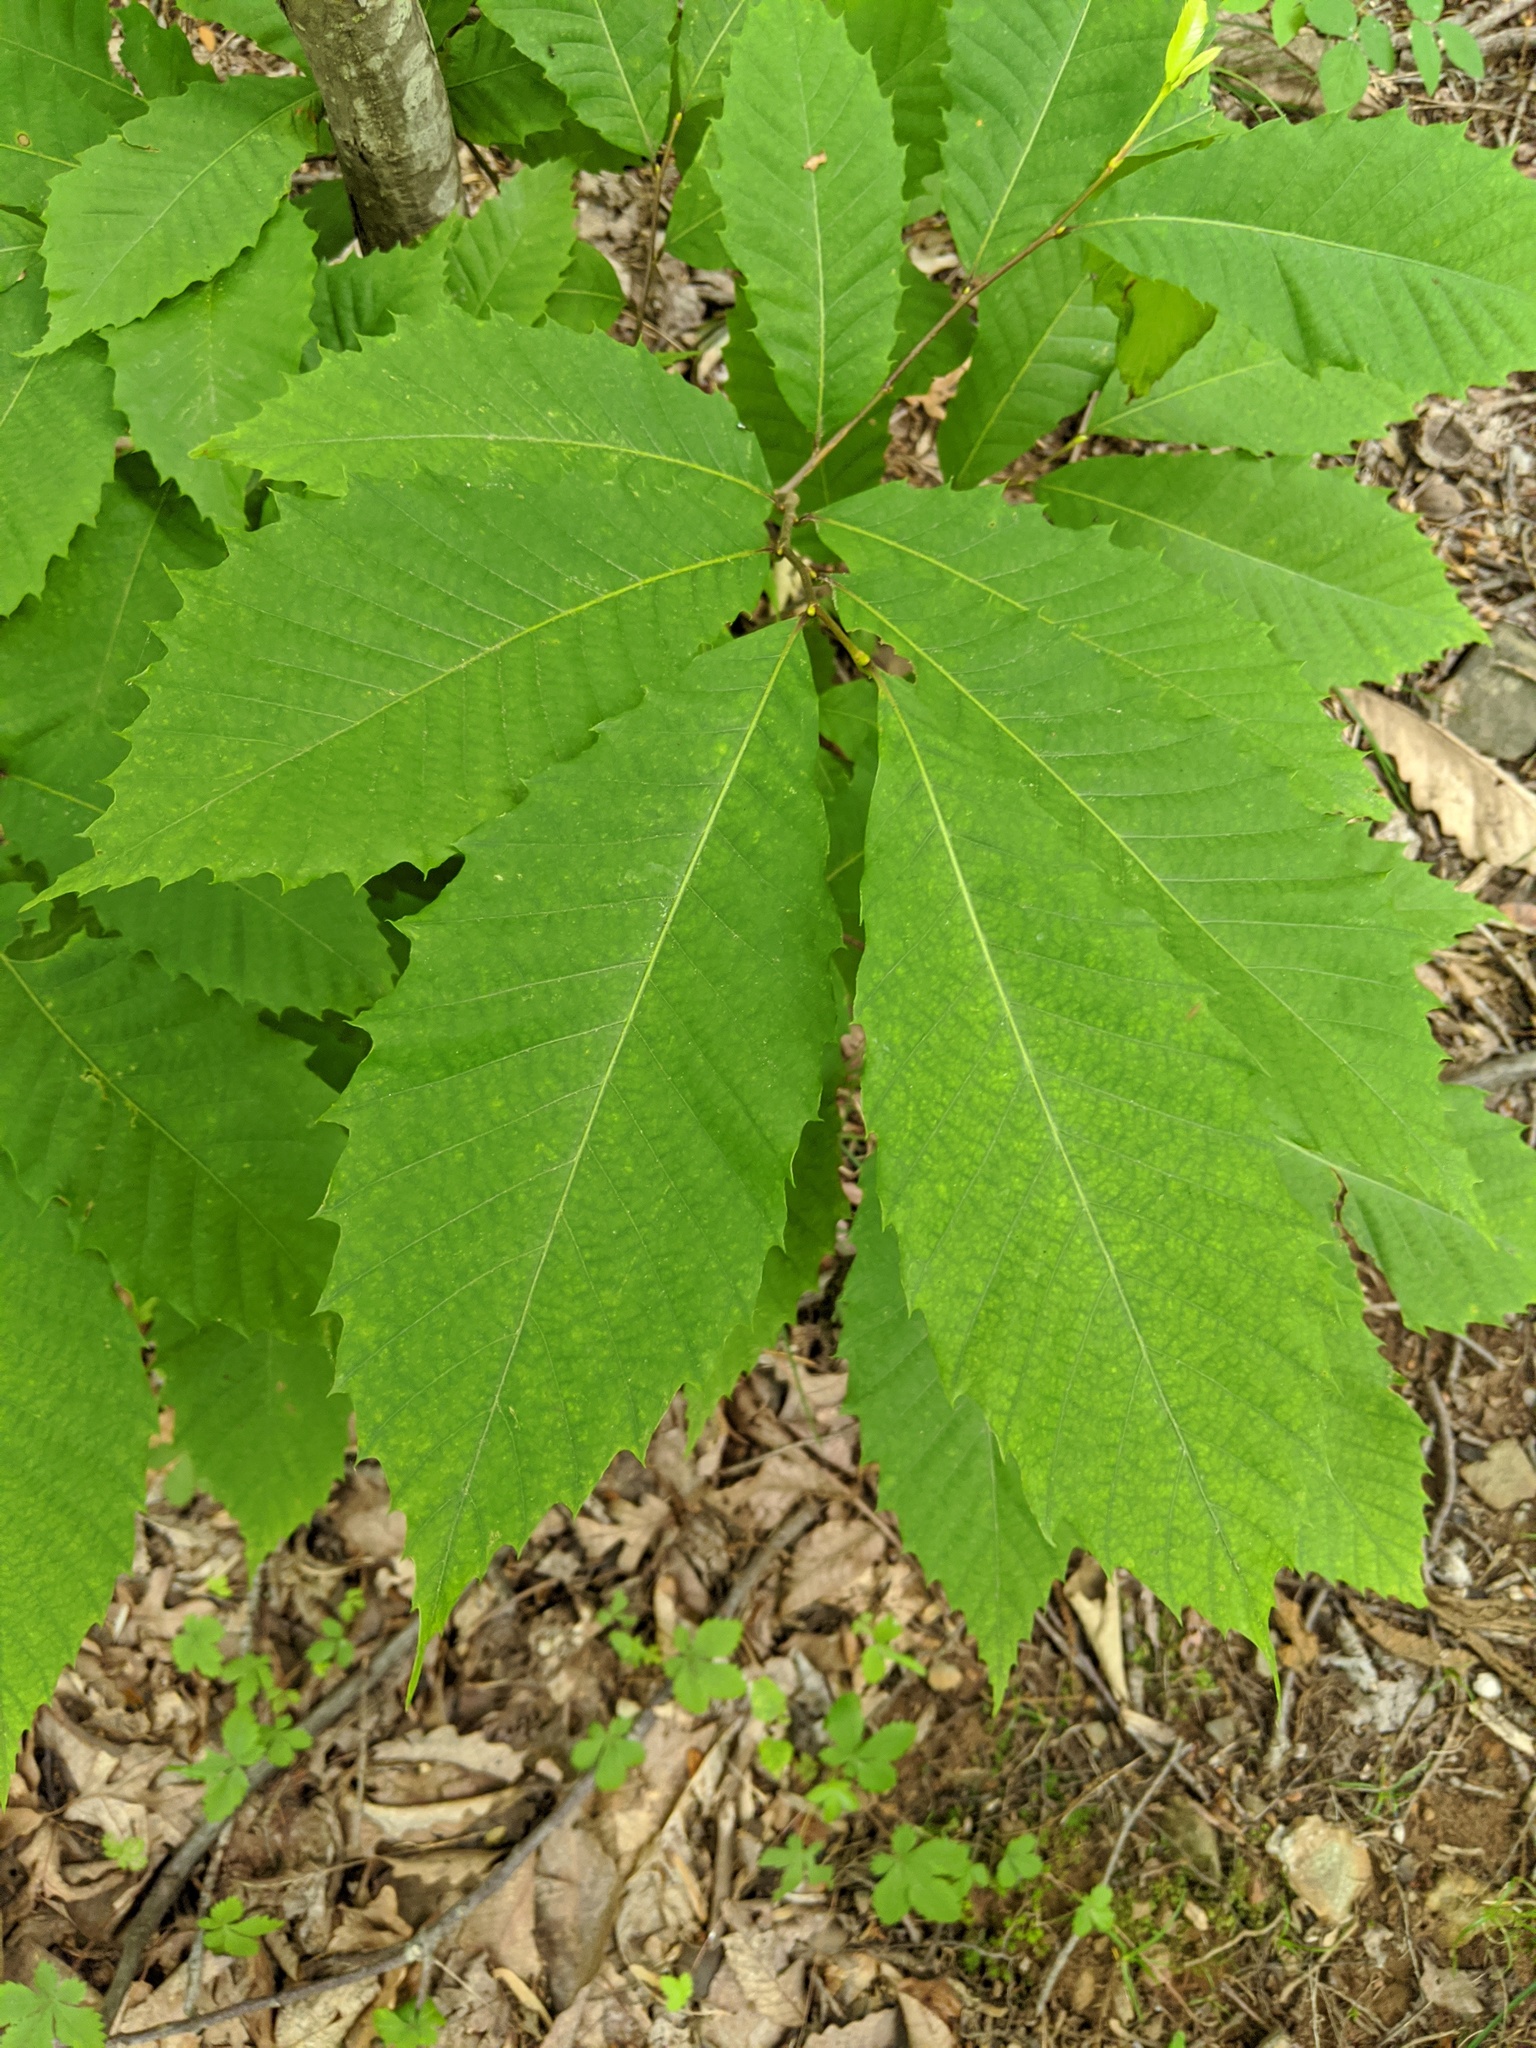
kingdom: Plantae
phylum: Tracheophyta
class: Magnoliopsida
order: Fagales
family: Fagaceae
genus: Castanea
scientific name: Castanea dentata
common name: American chestnut
